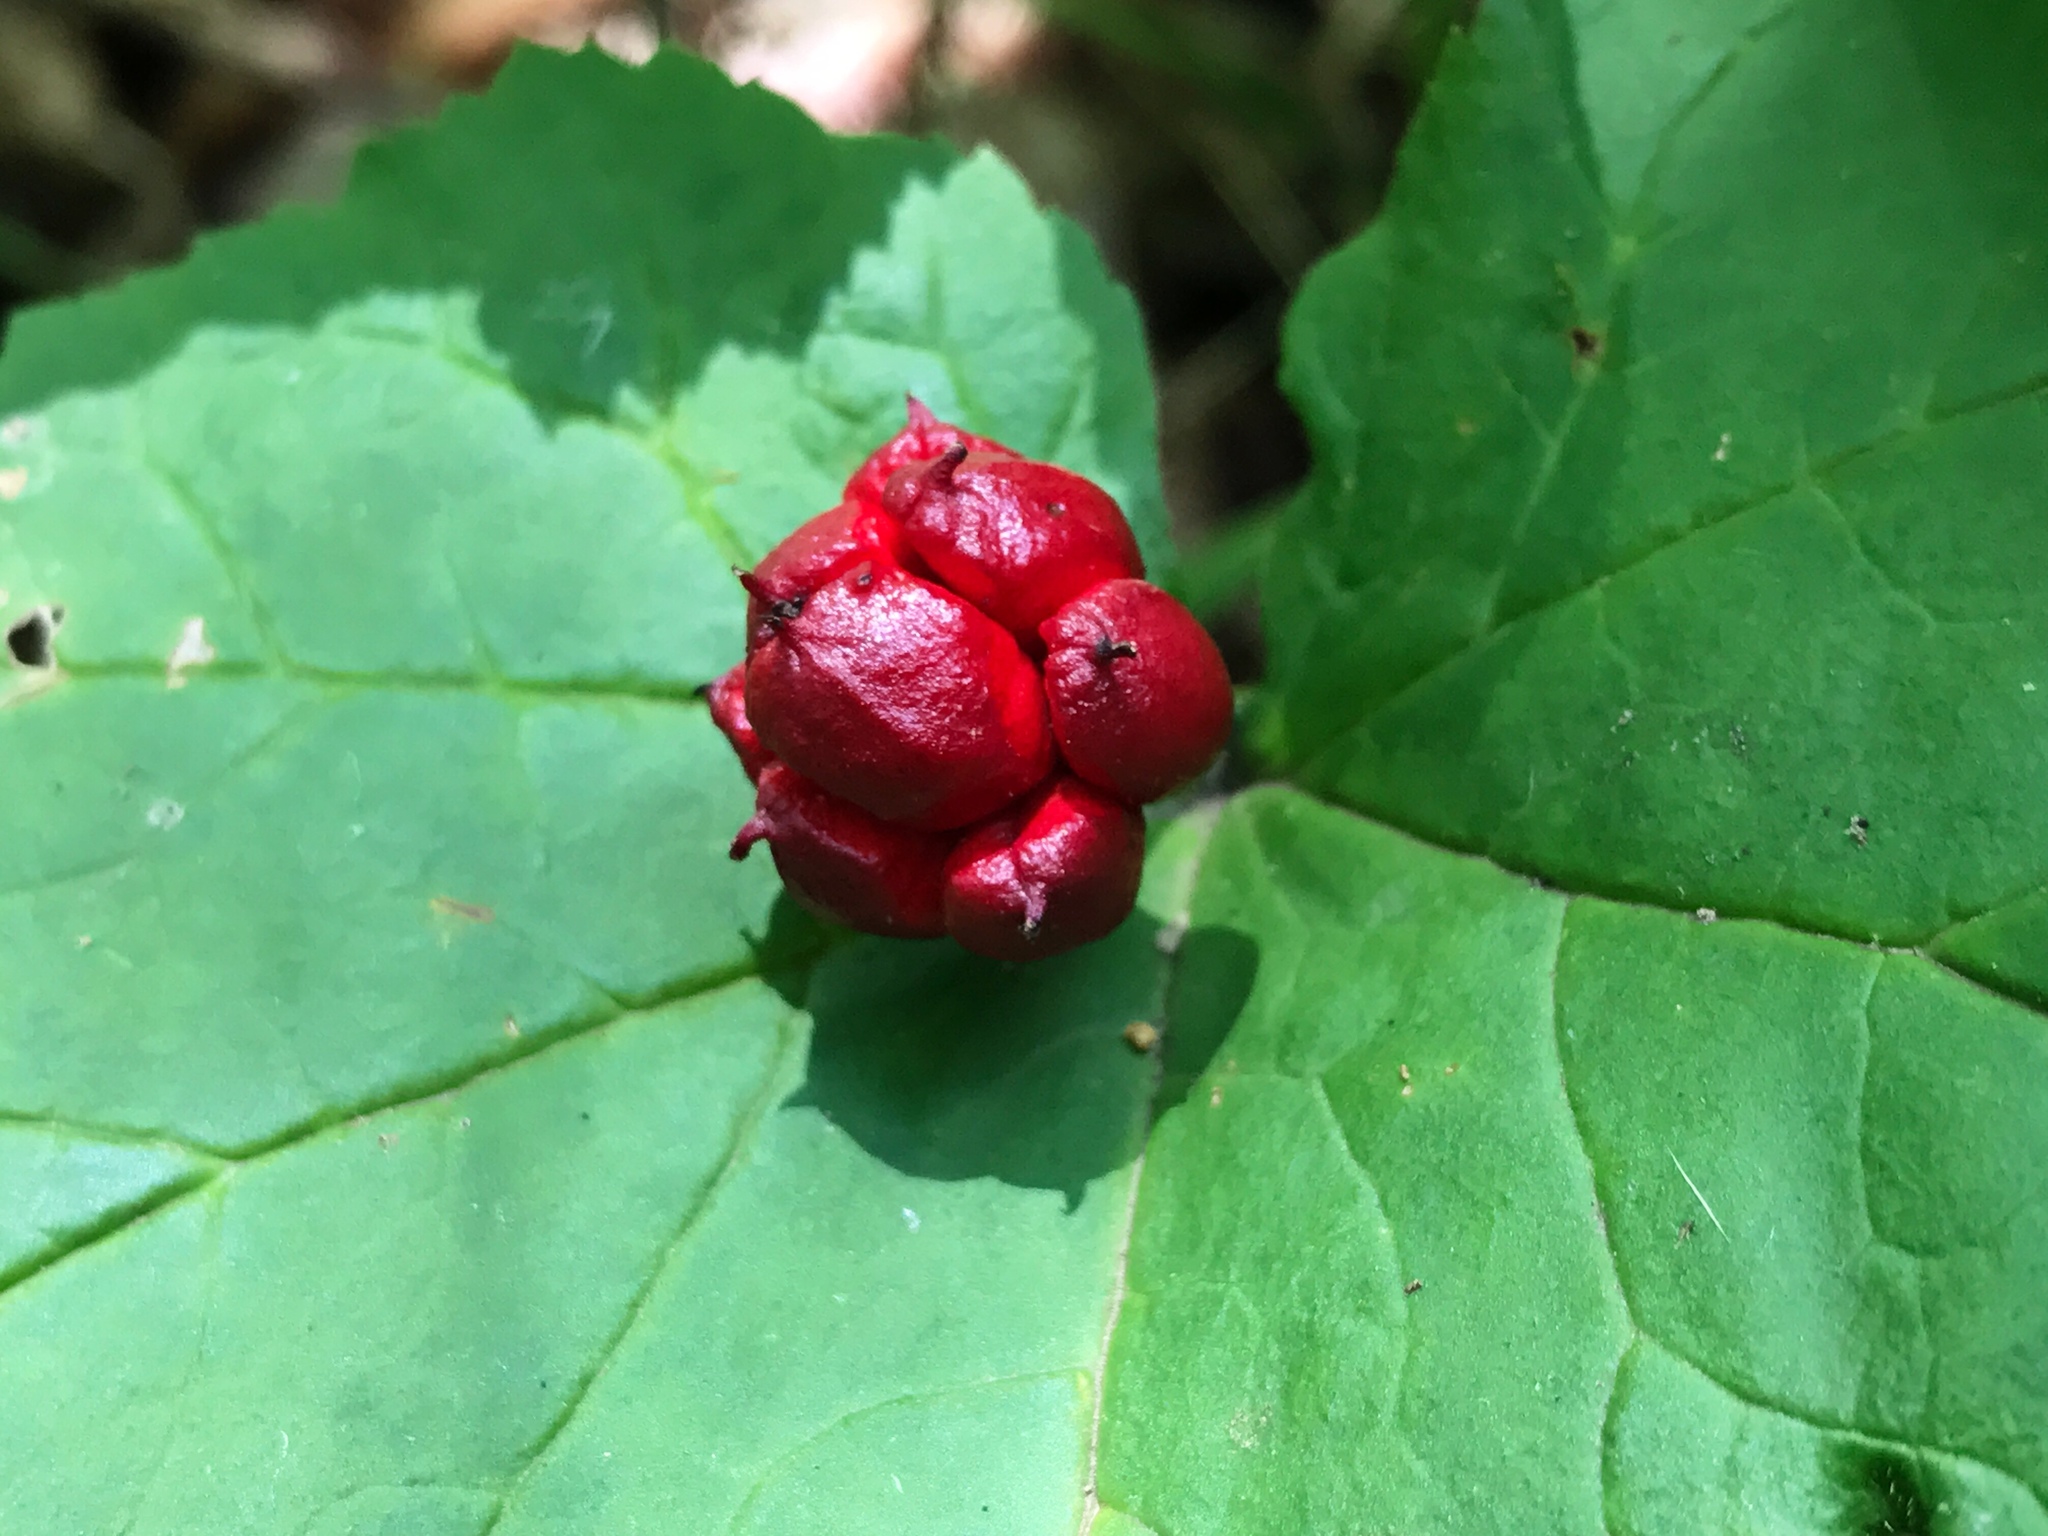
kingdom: Plantae
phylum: Tracheophyta
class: Magnoliopsida
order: Ranunculales
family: Ranunculaceae
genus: Hydrastis
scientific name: Hydrastis canadensis
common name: Goldenseal
